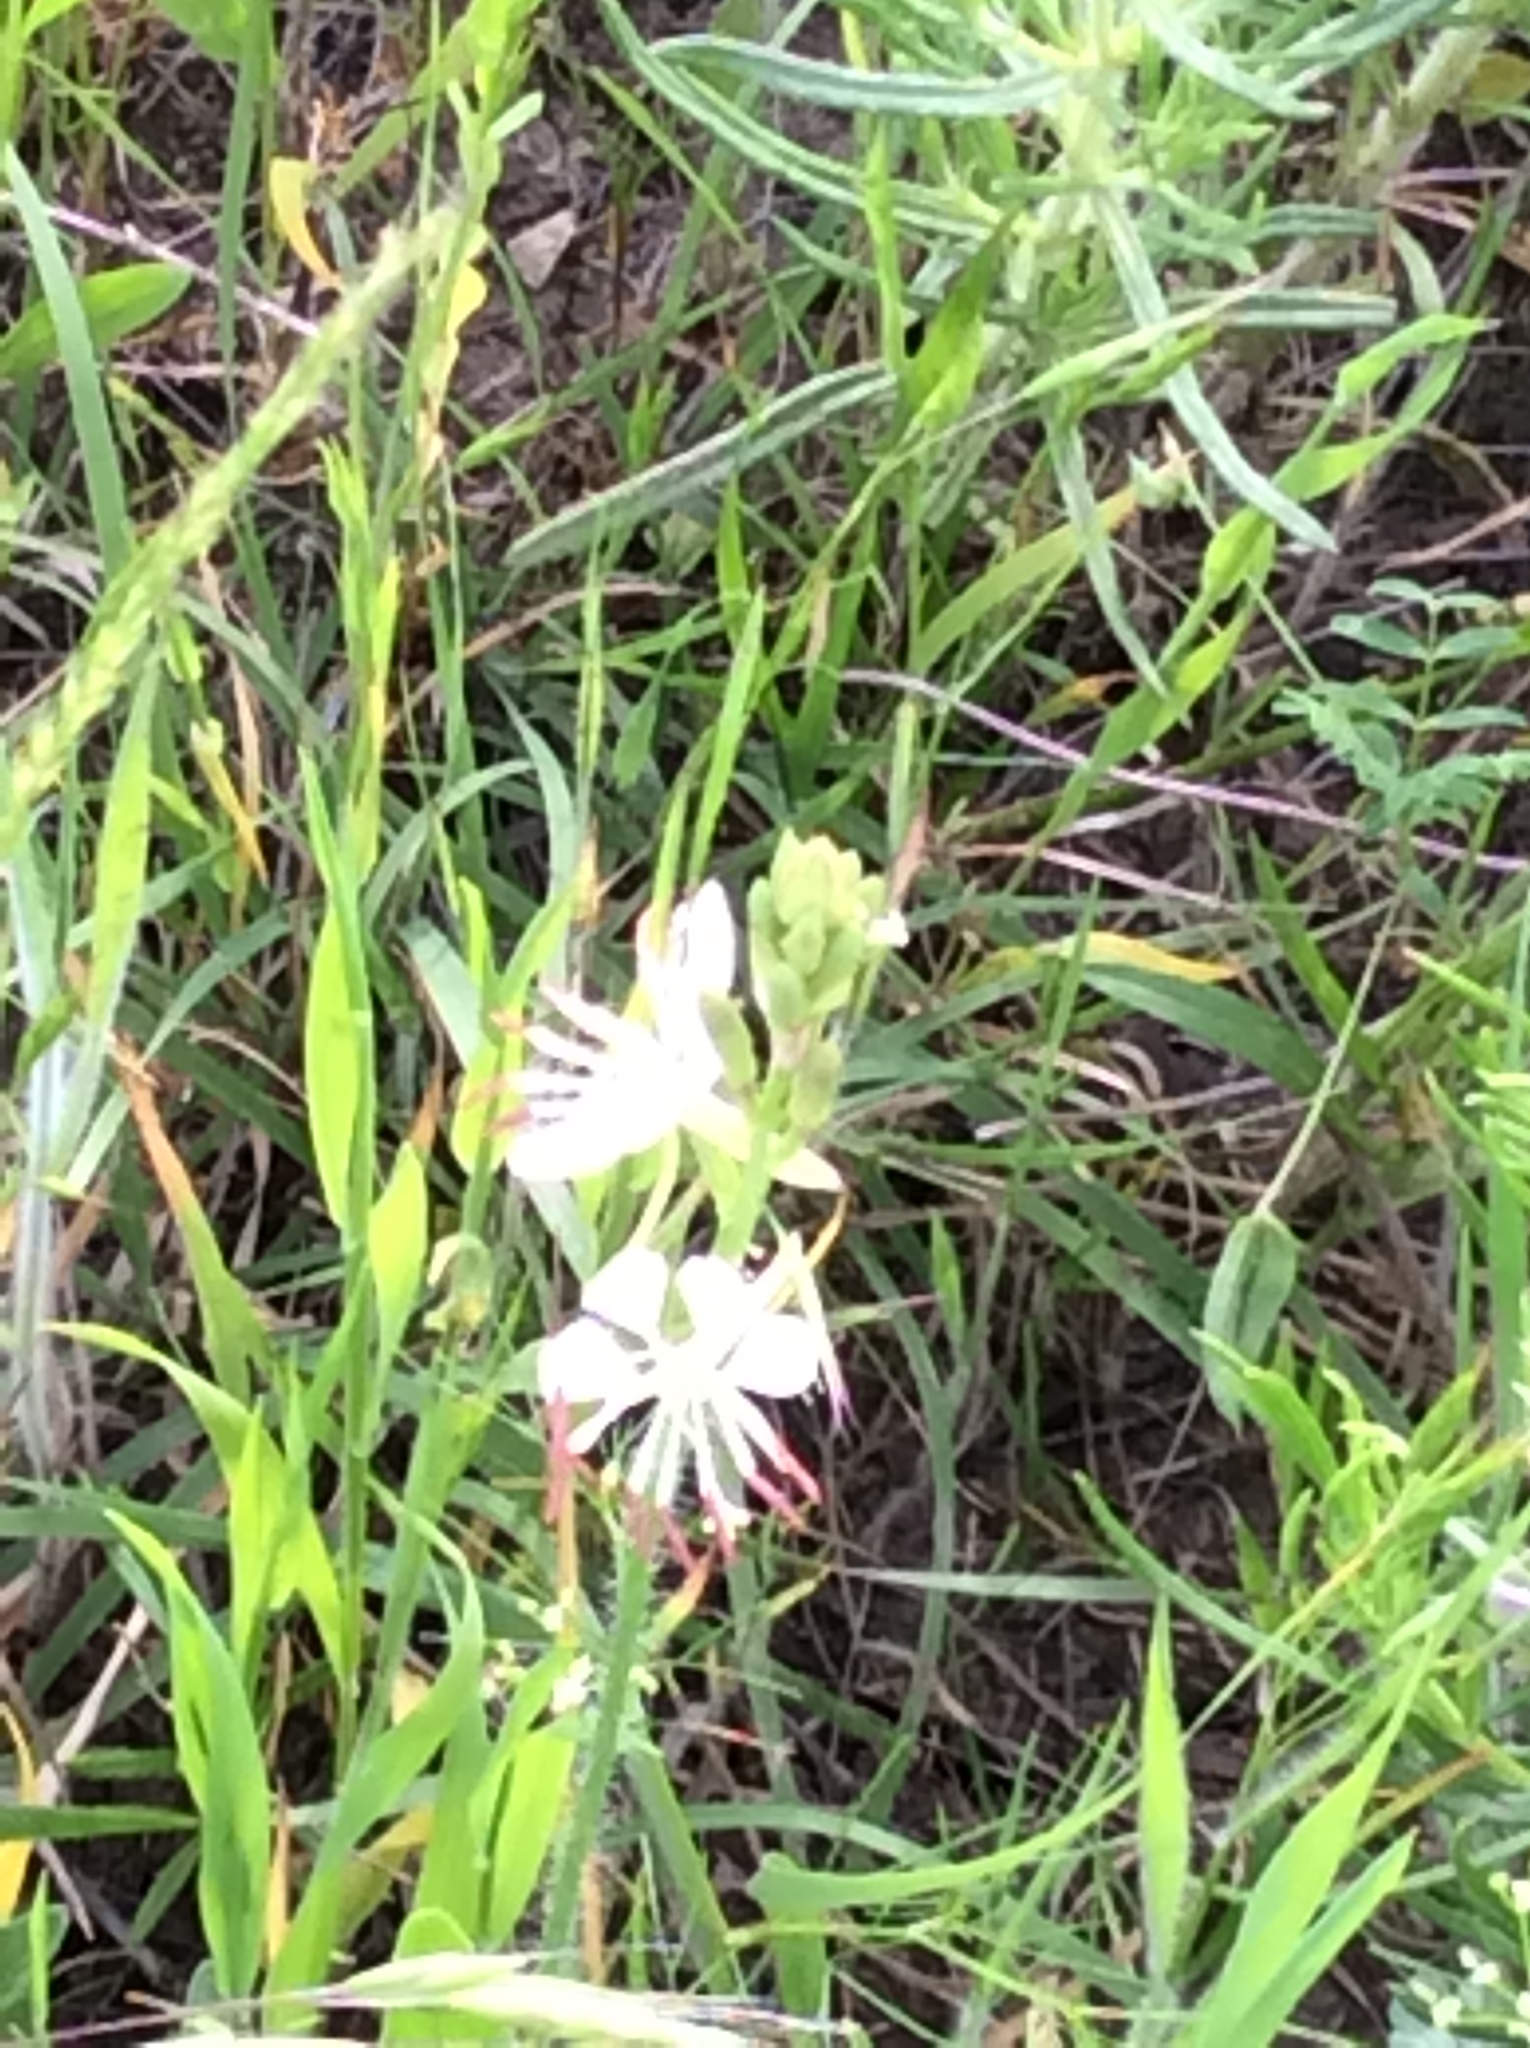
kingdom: Plantae
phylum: Tracheophyta
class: Magnoliopsida
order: Myrtales
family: Onagraceae
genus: Oenothera
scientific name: Oenothera suffulta
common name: Kisses
